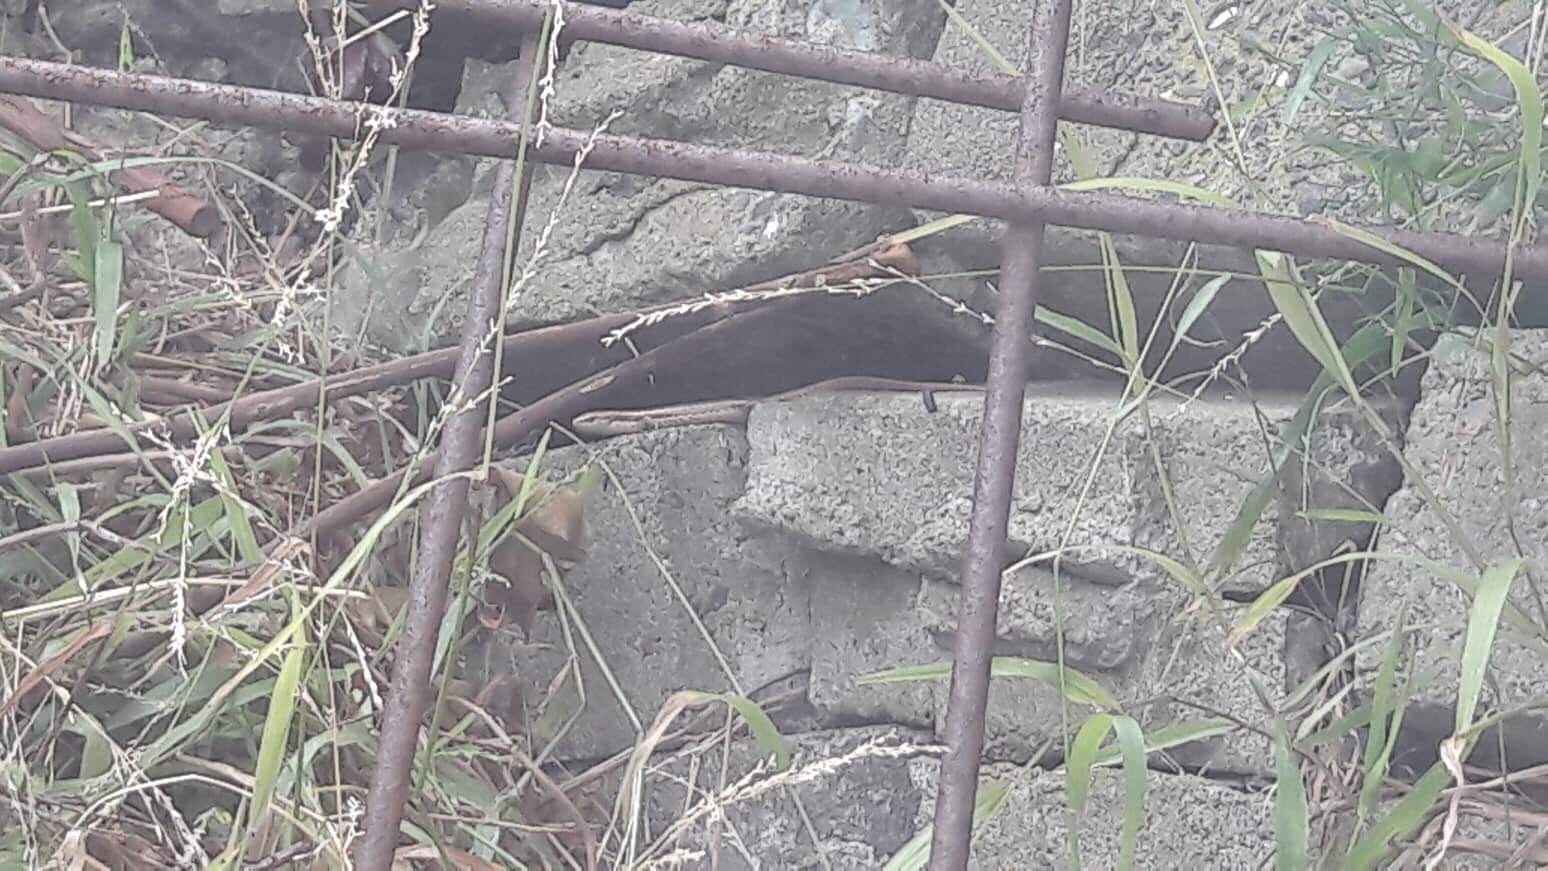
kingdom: Animalia
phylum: Chordata
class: Squamata
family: Scincidae
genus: Oligosoma
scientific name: Oligosoma polychroma
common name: Common new zealand skink
